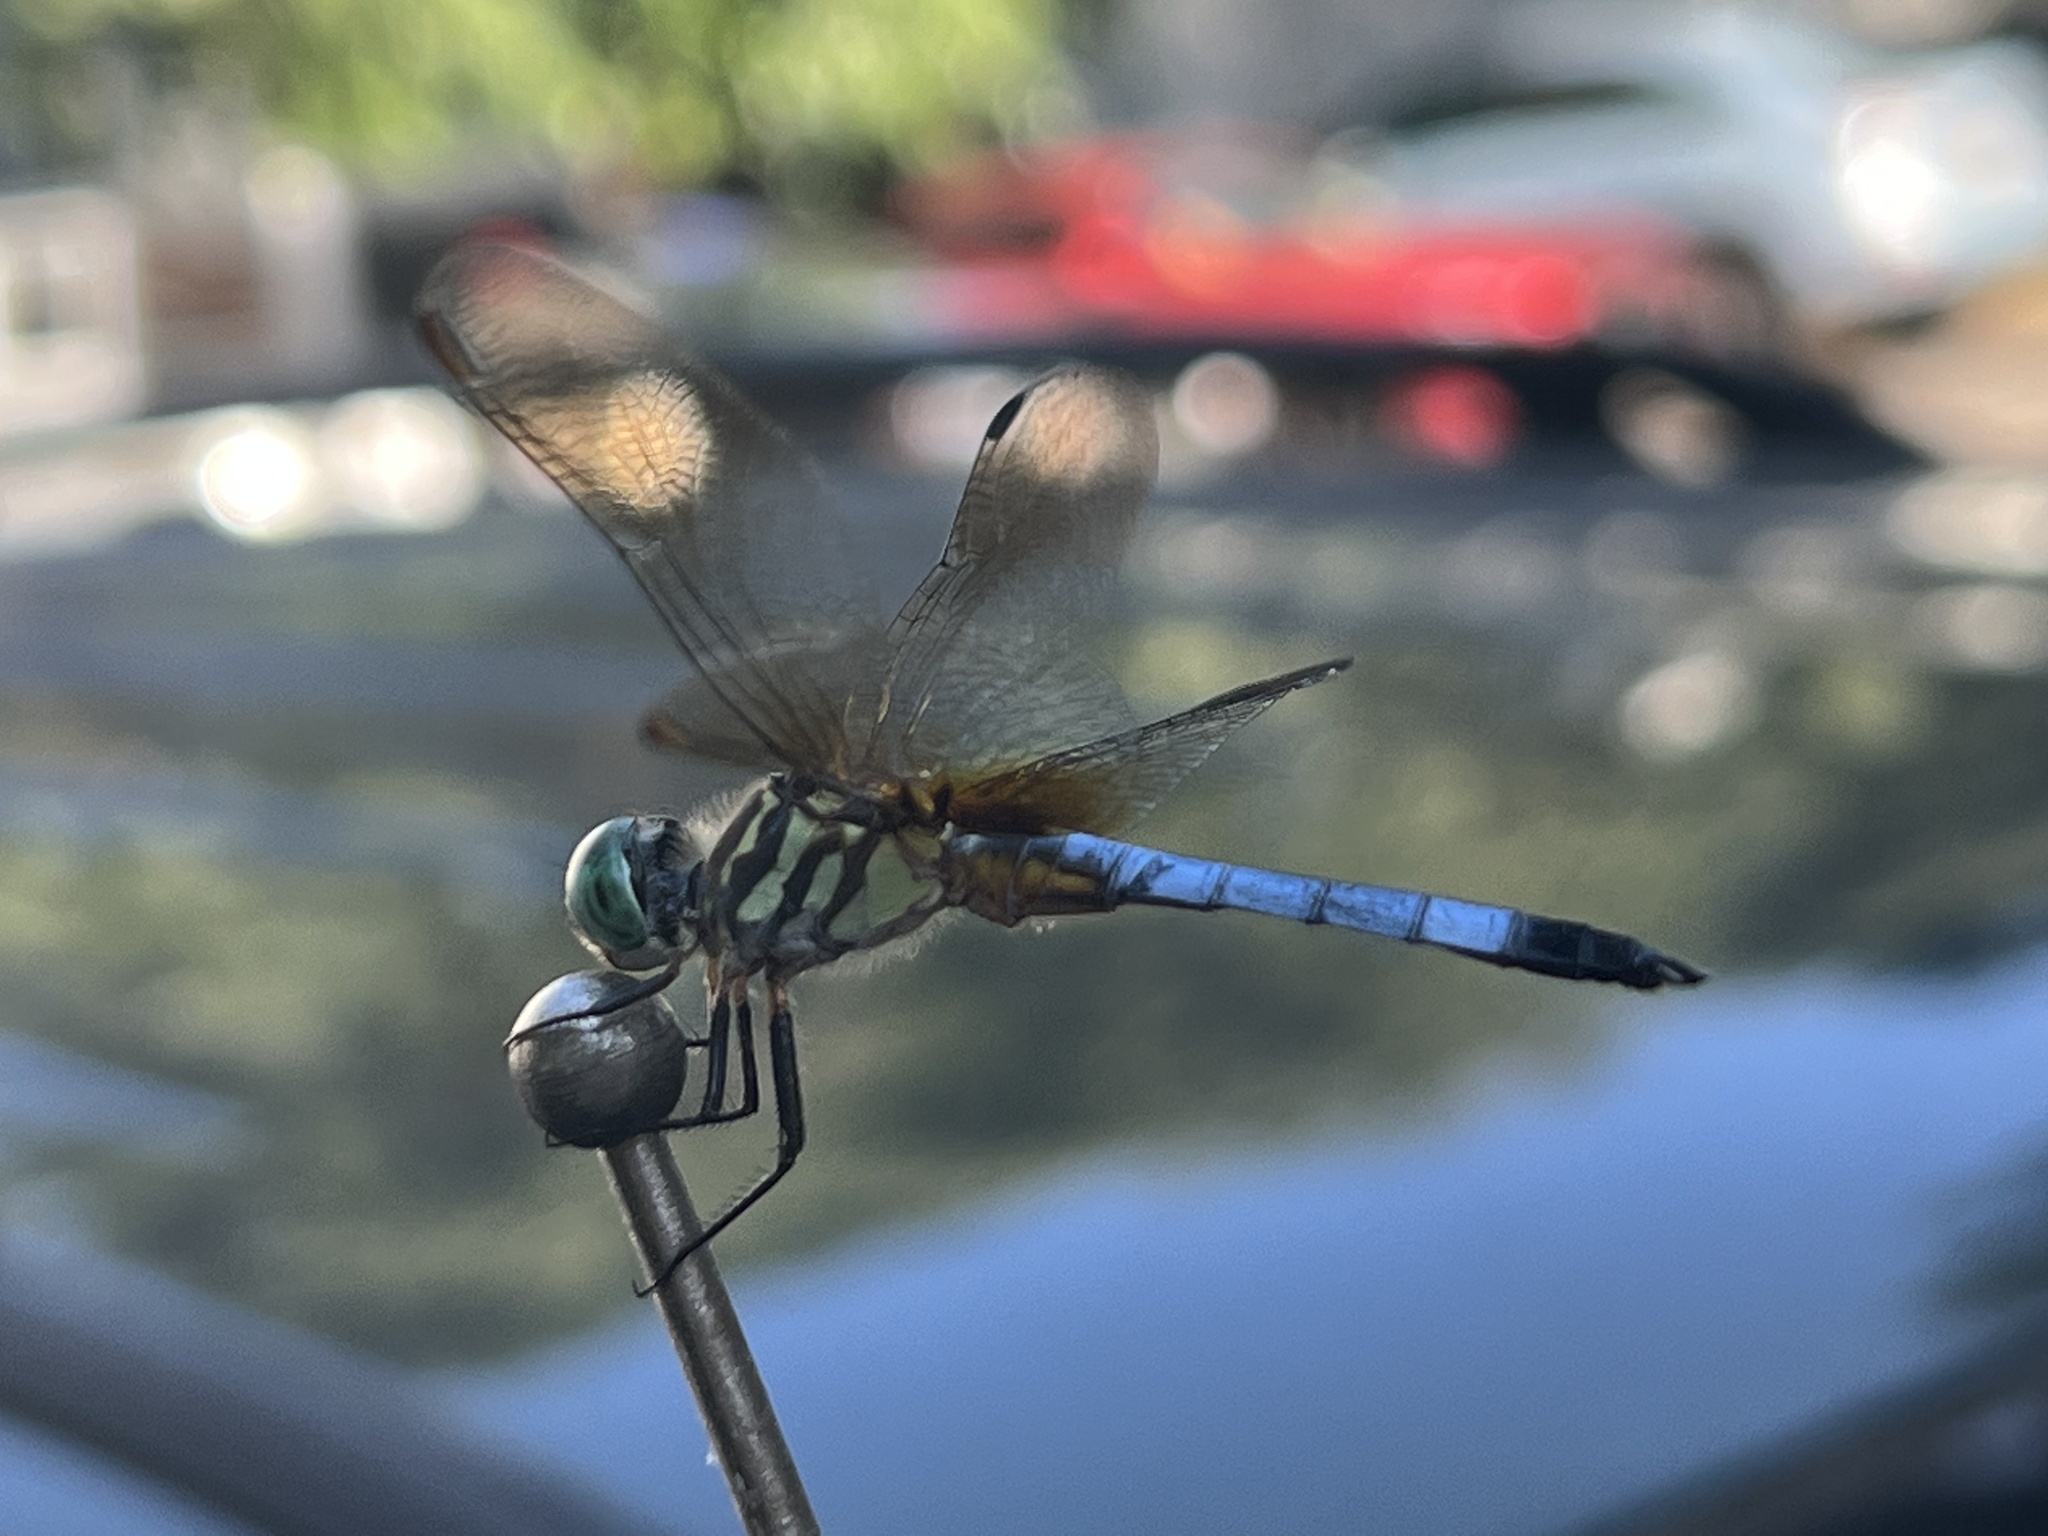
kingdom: Animalia
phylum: Arthropoda
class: Insecta
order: Odonata
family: Libellulidae
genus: Pachydiplax
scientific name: Pachydiplax longipennis
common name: Blue dasher
